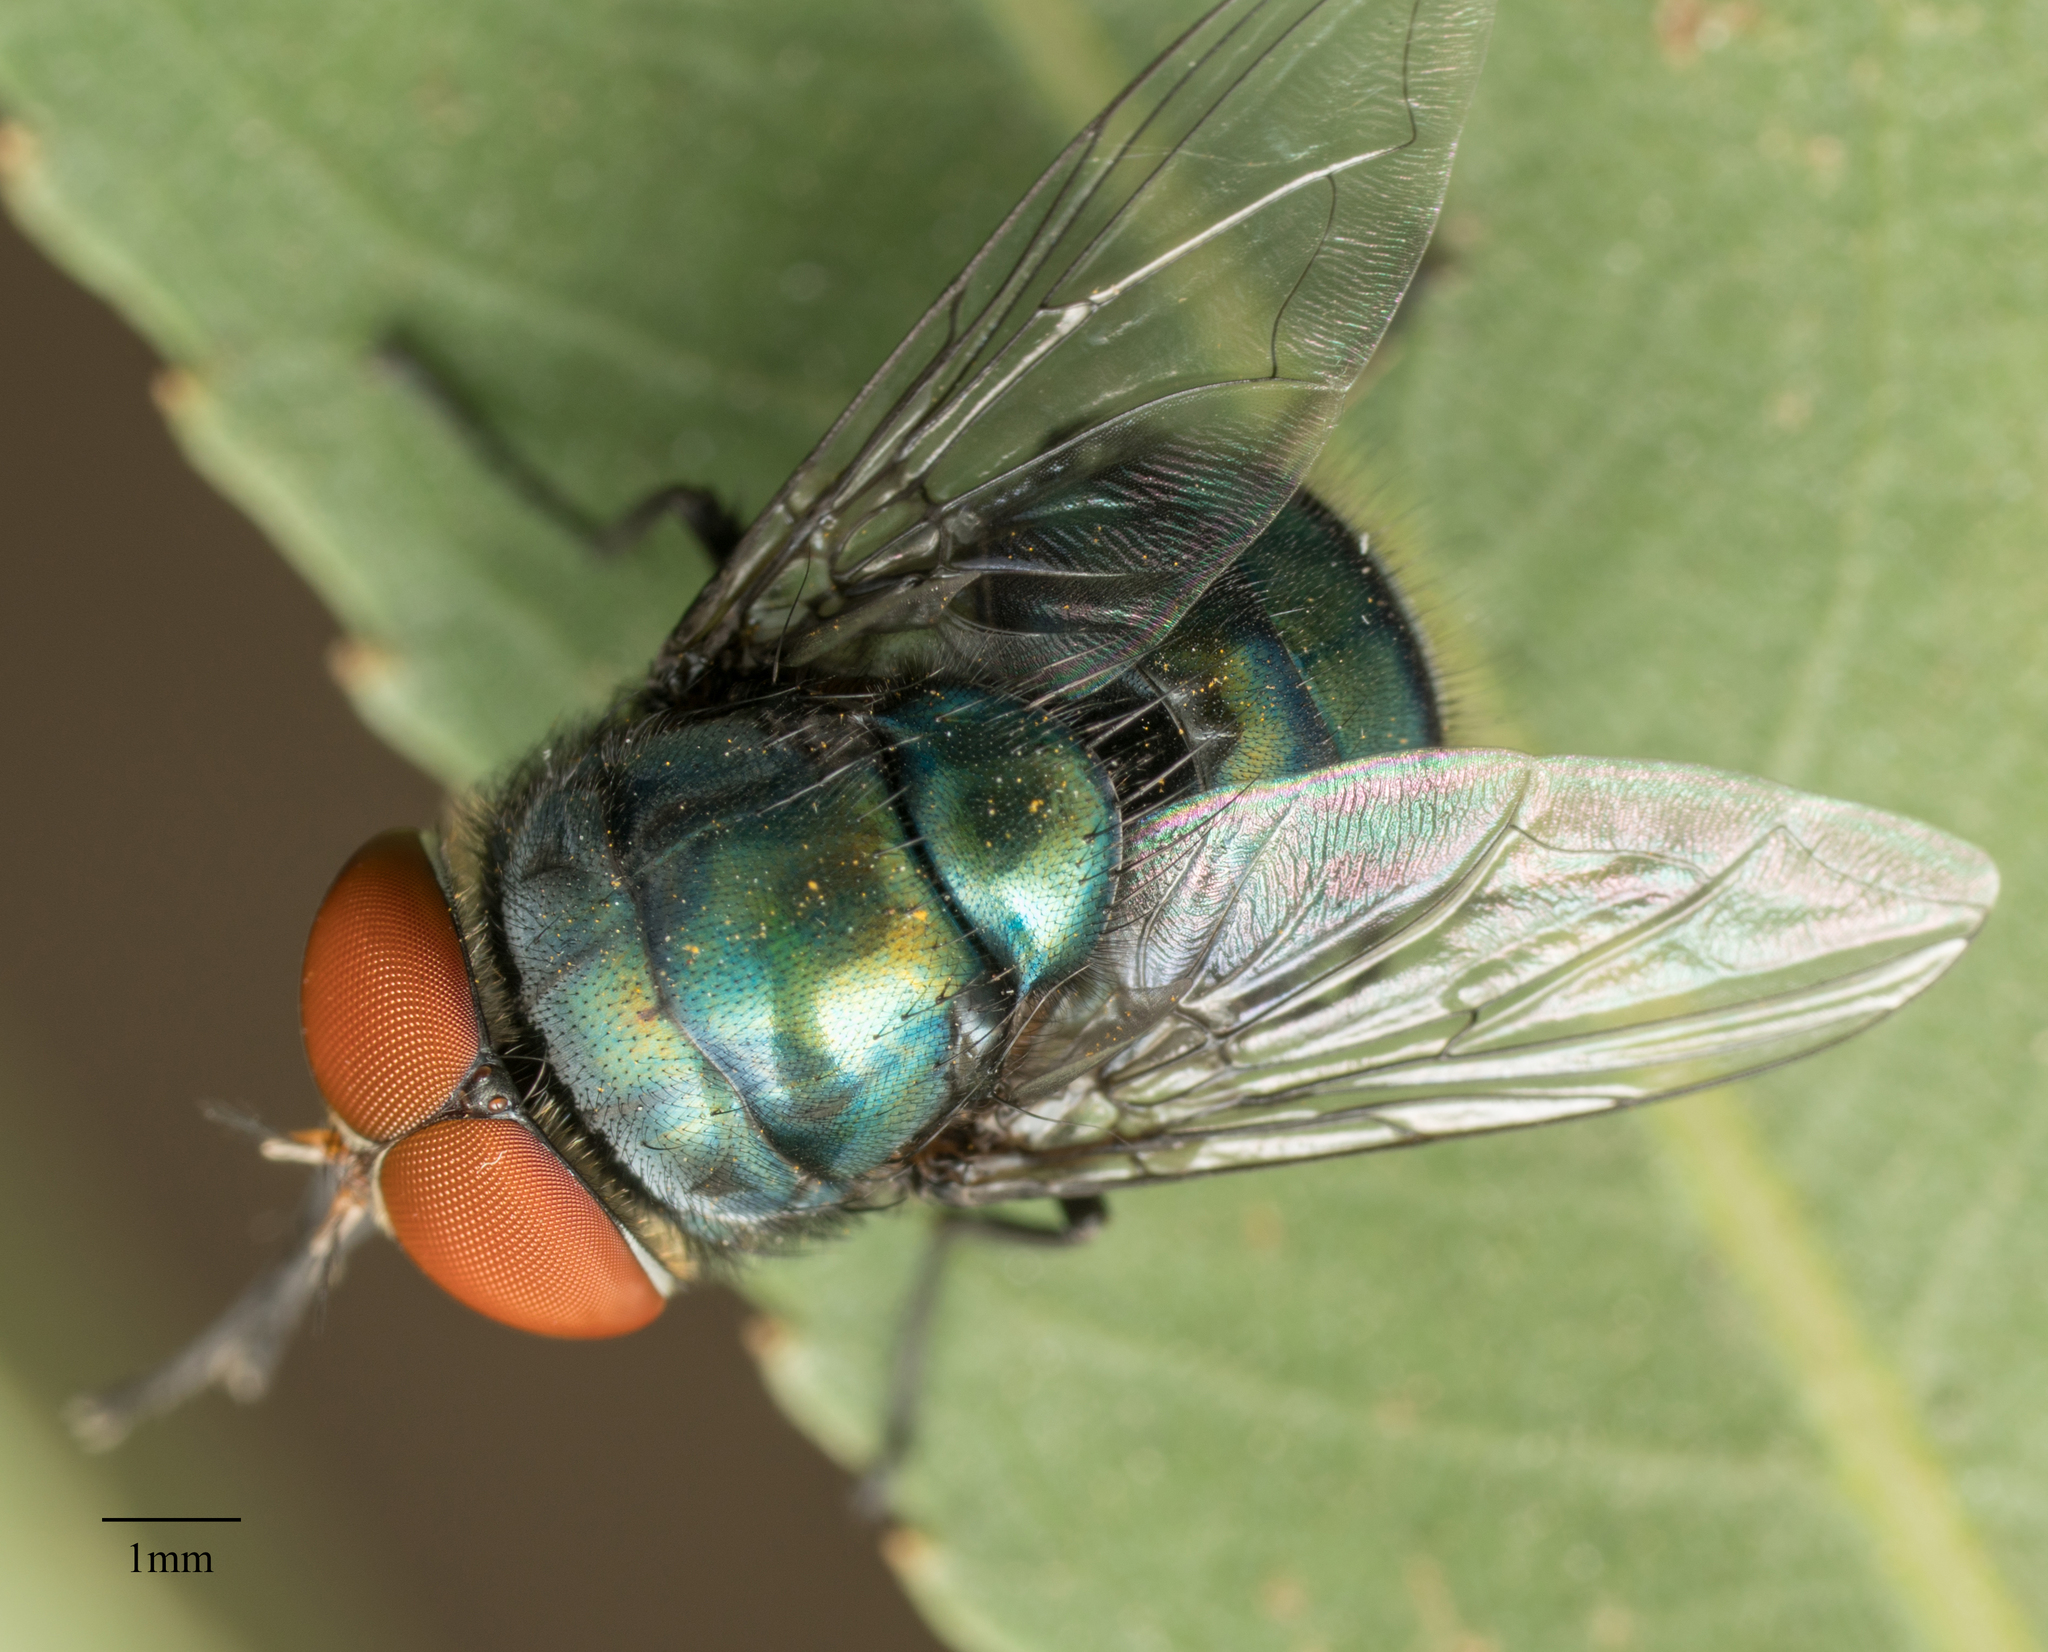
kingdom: Animalia
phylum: Arthropoda
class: Insecta
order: Diptera
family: Calliphoridae
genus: Chrysomya
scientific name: Chrysomya megacephala
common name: Blow fly
